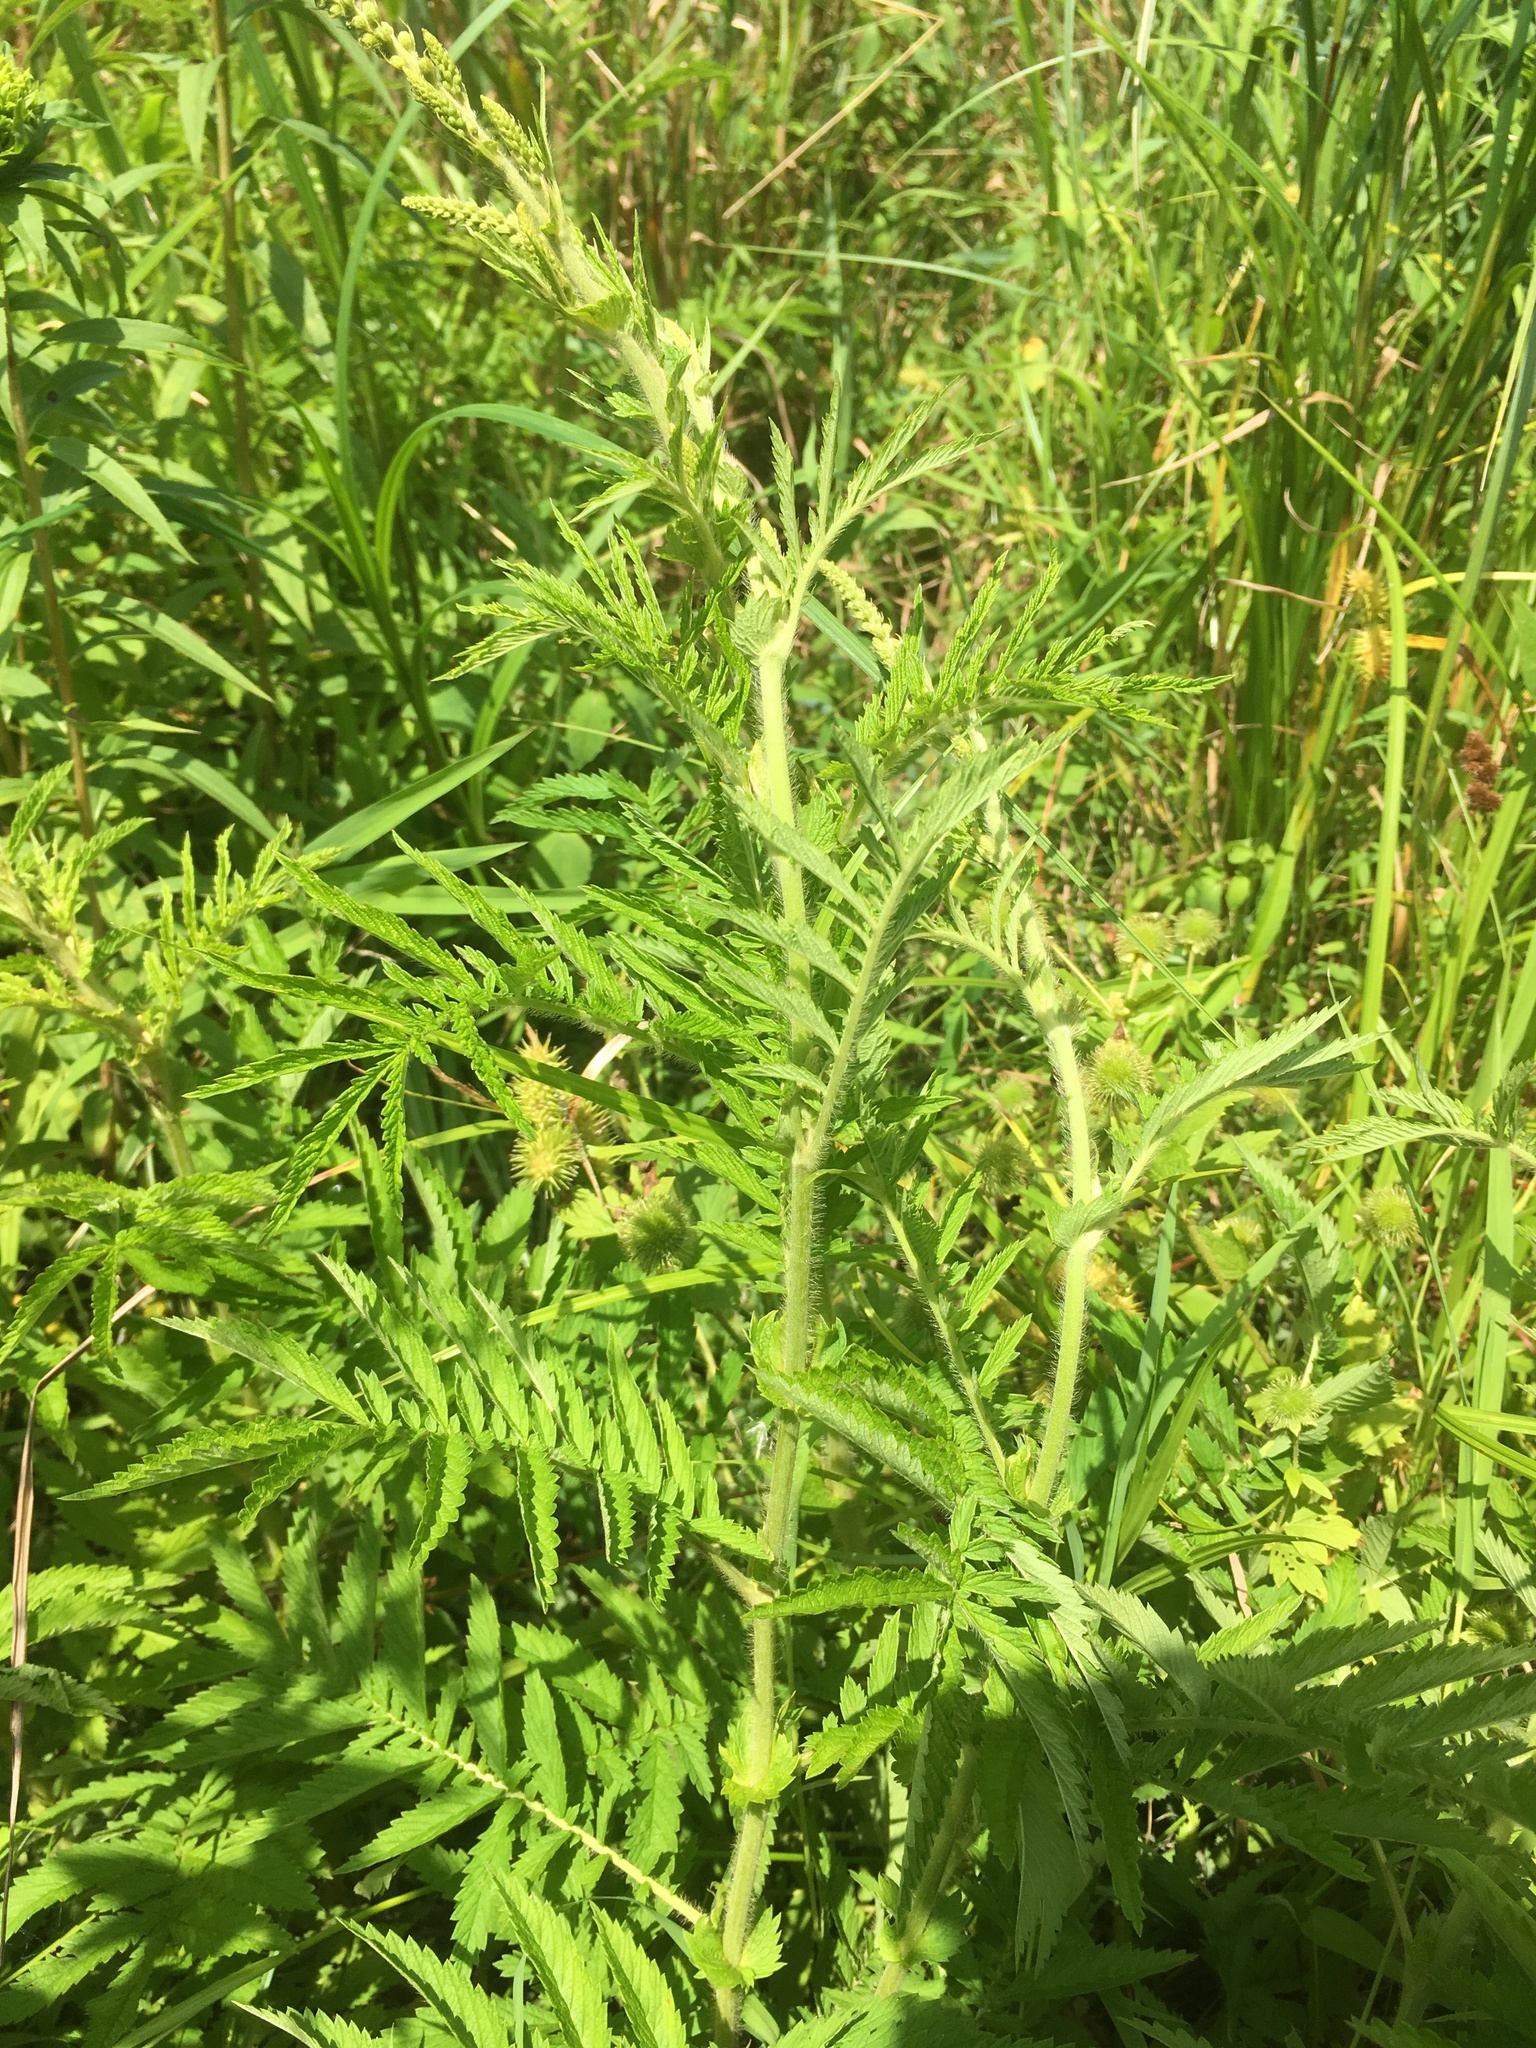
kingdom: Plantae
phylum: Tracheophyta
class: Magnoliopsida
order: Rosales
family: Rosaceae
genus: Agrimonia
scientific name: Agrimonia parviflora
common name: Harvest-lice
